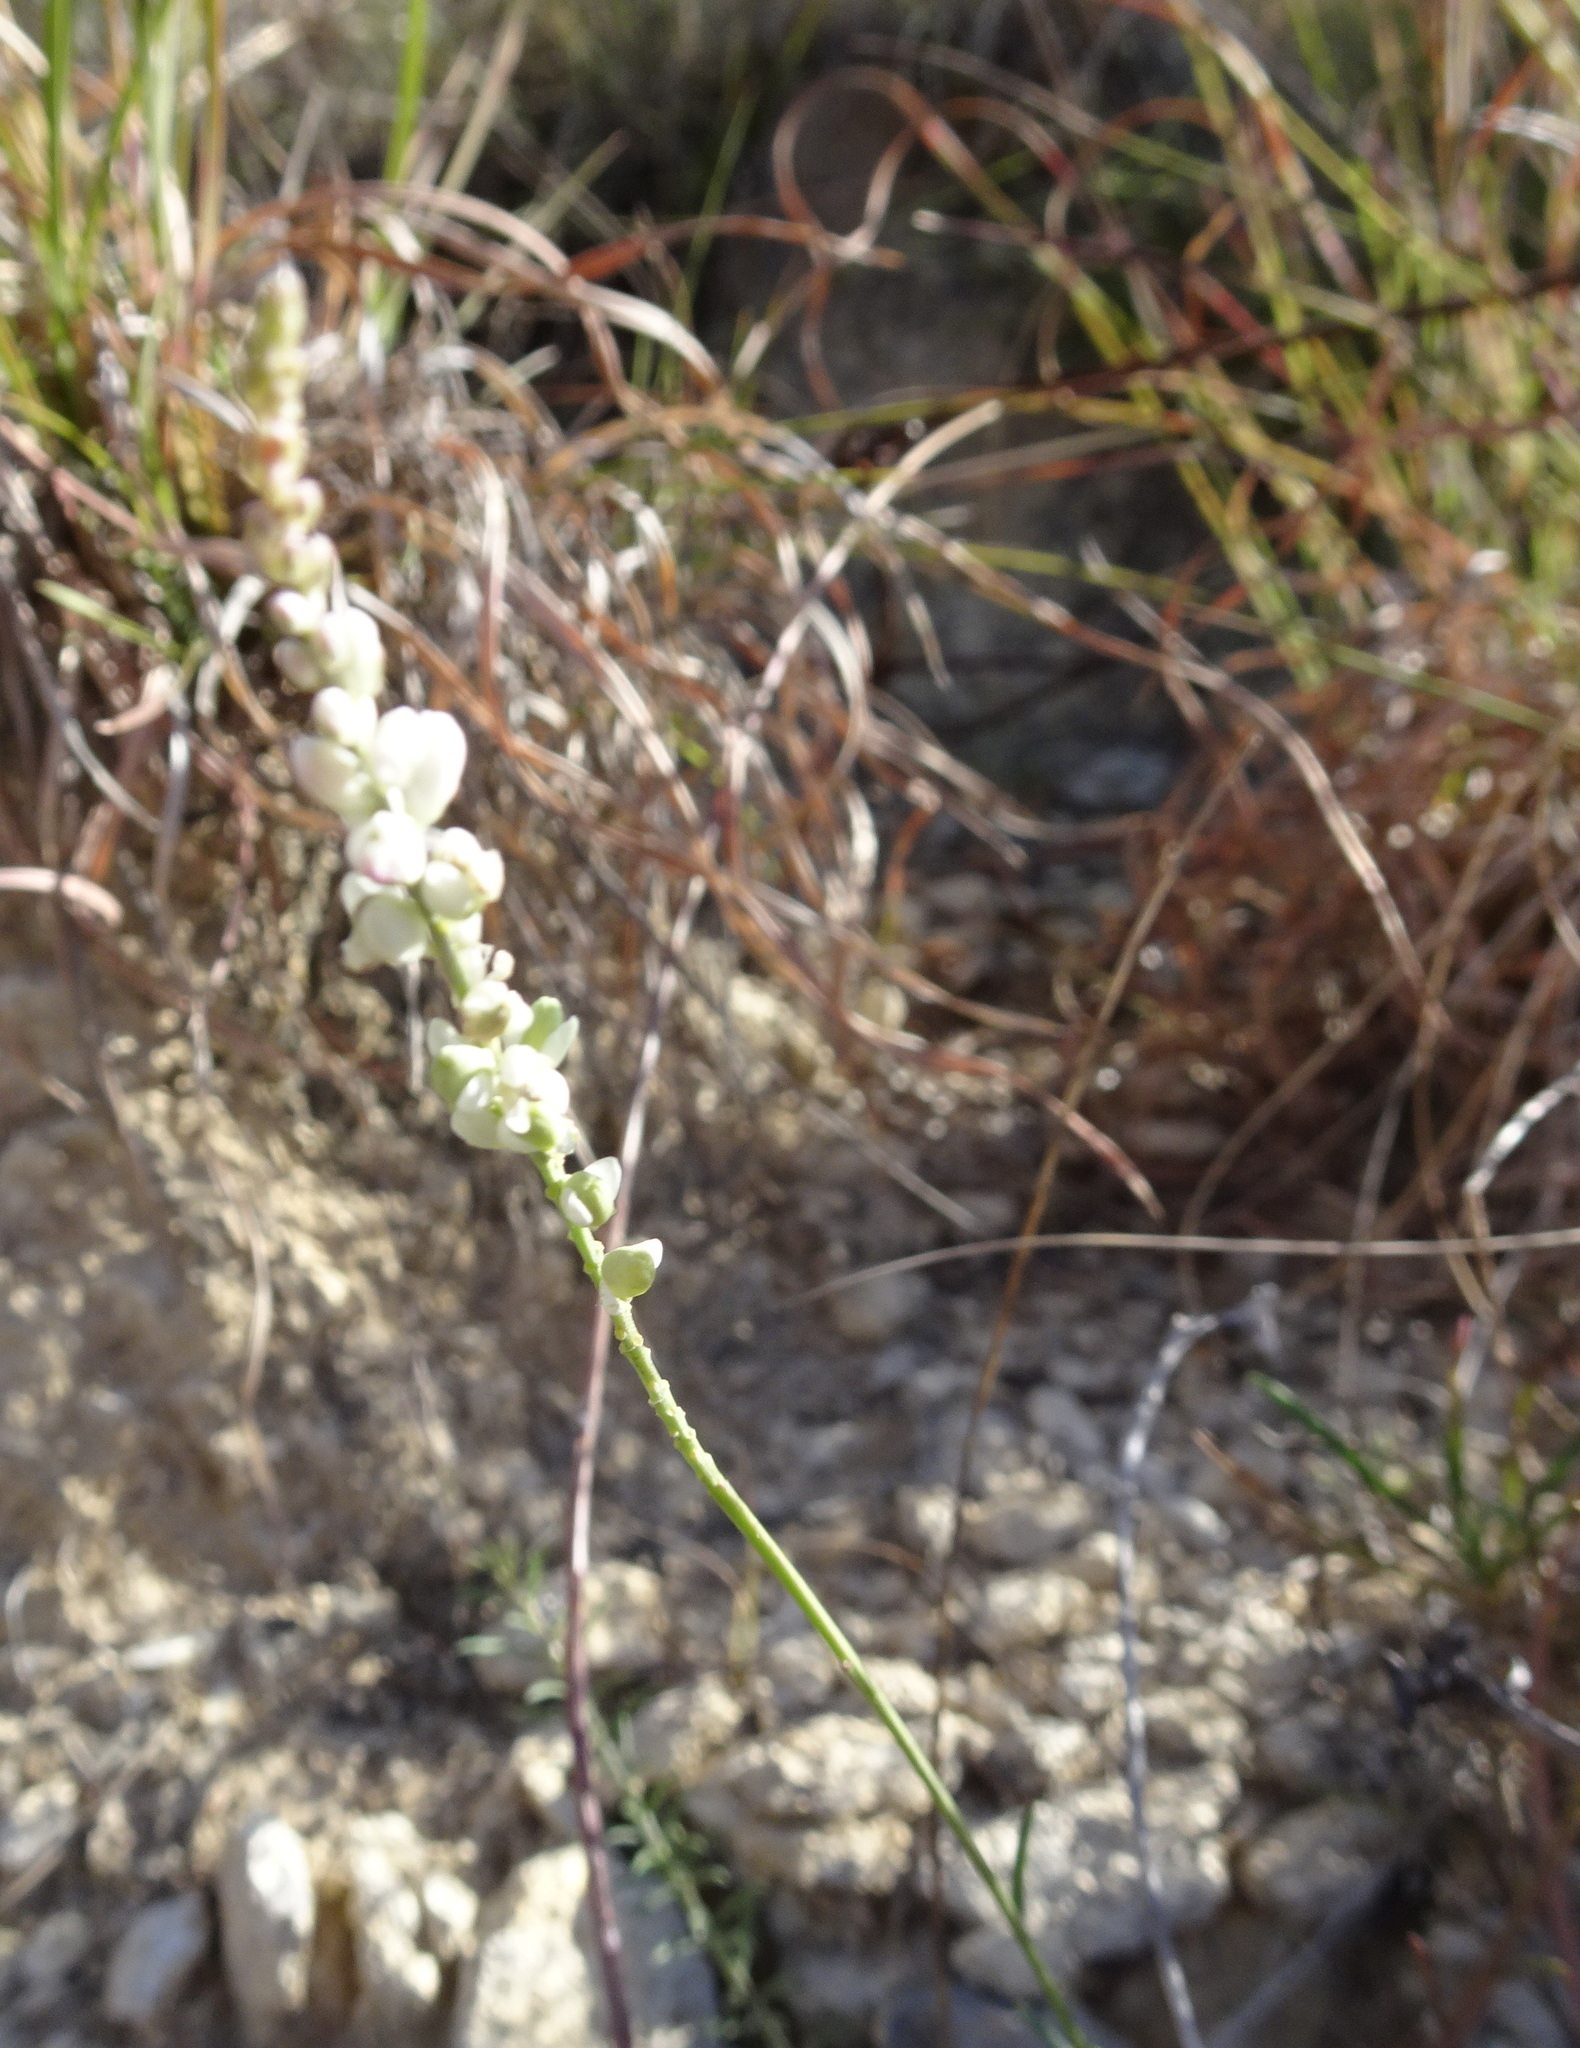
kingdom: Plantae
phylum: Tracheophyta
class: Magnoliopsida
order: Fabales
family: Polygalaceae
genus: Polygala
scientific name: Polygala alba
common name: White milkwort
